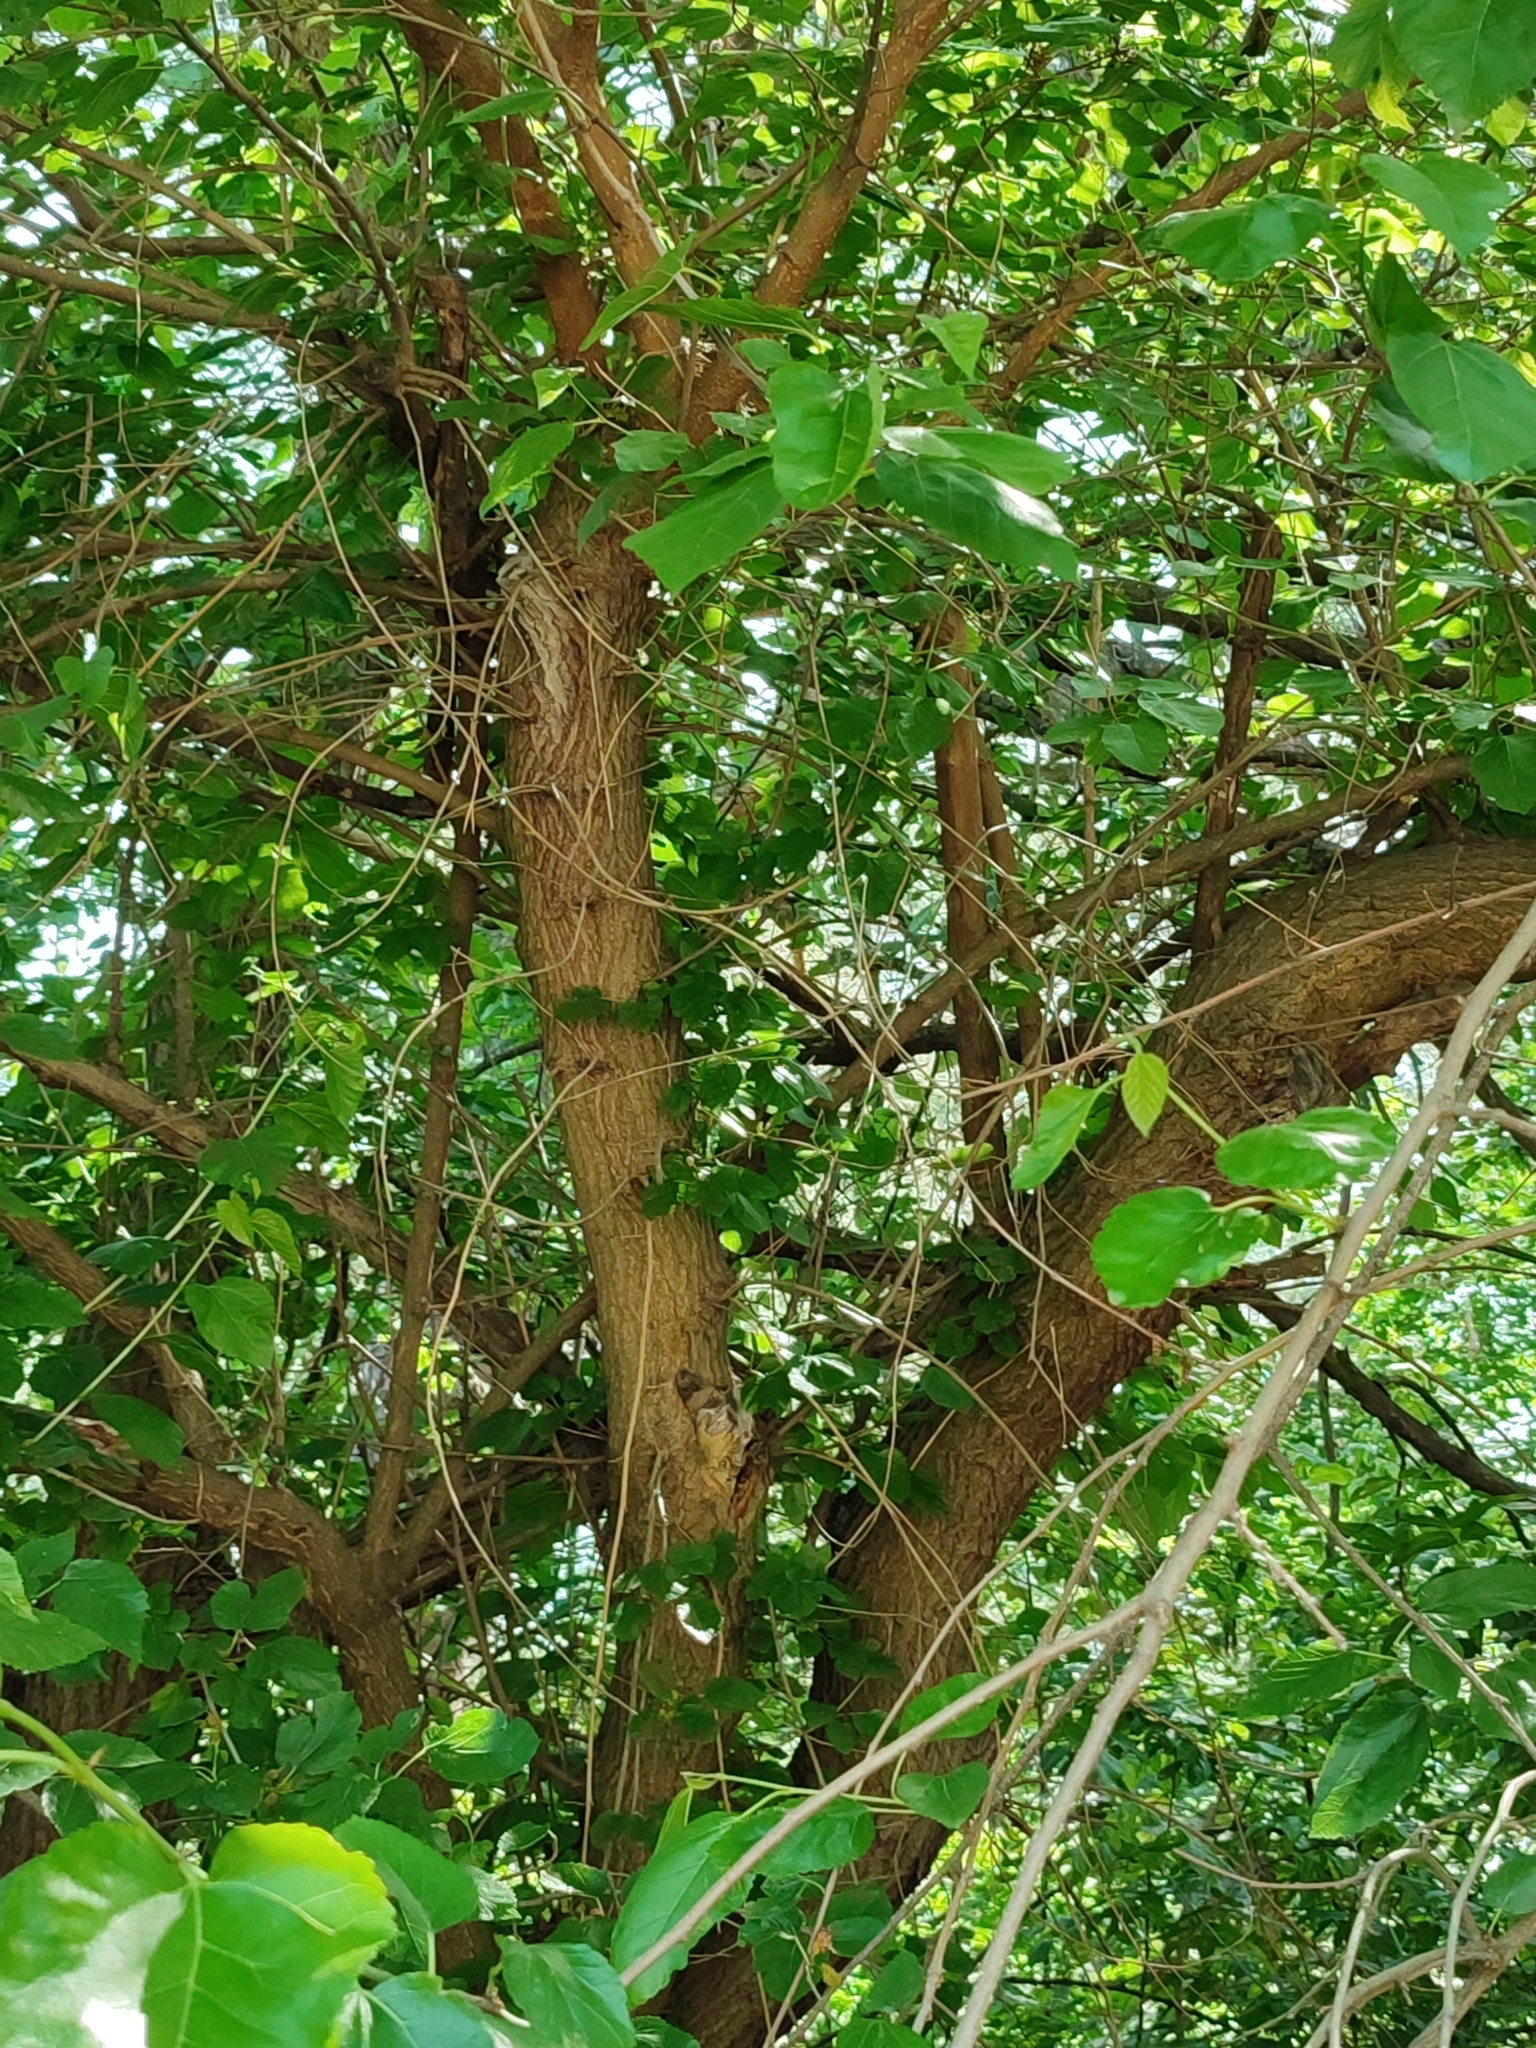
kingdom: Plantae
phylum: Tracheophyta
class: Magnoliopsida
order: Rosales
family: Moraceae
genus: Morus
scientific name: Morus alba
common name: White mulberry
